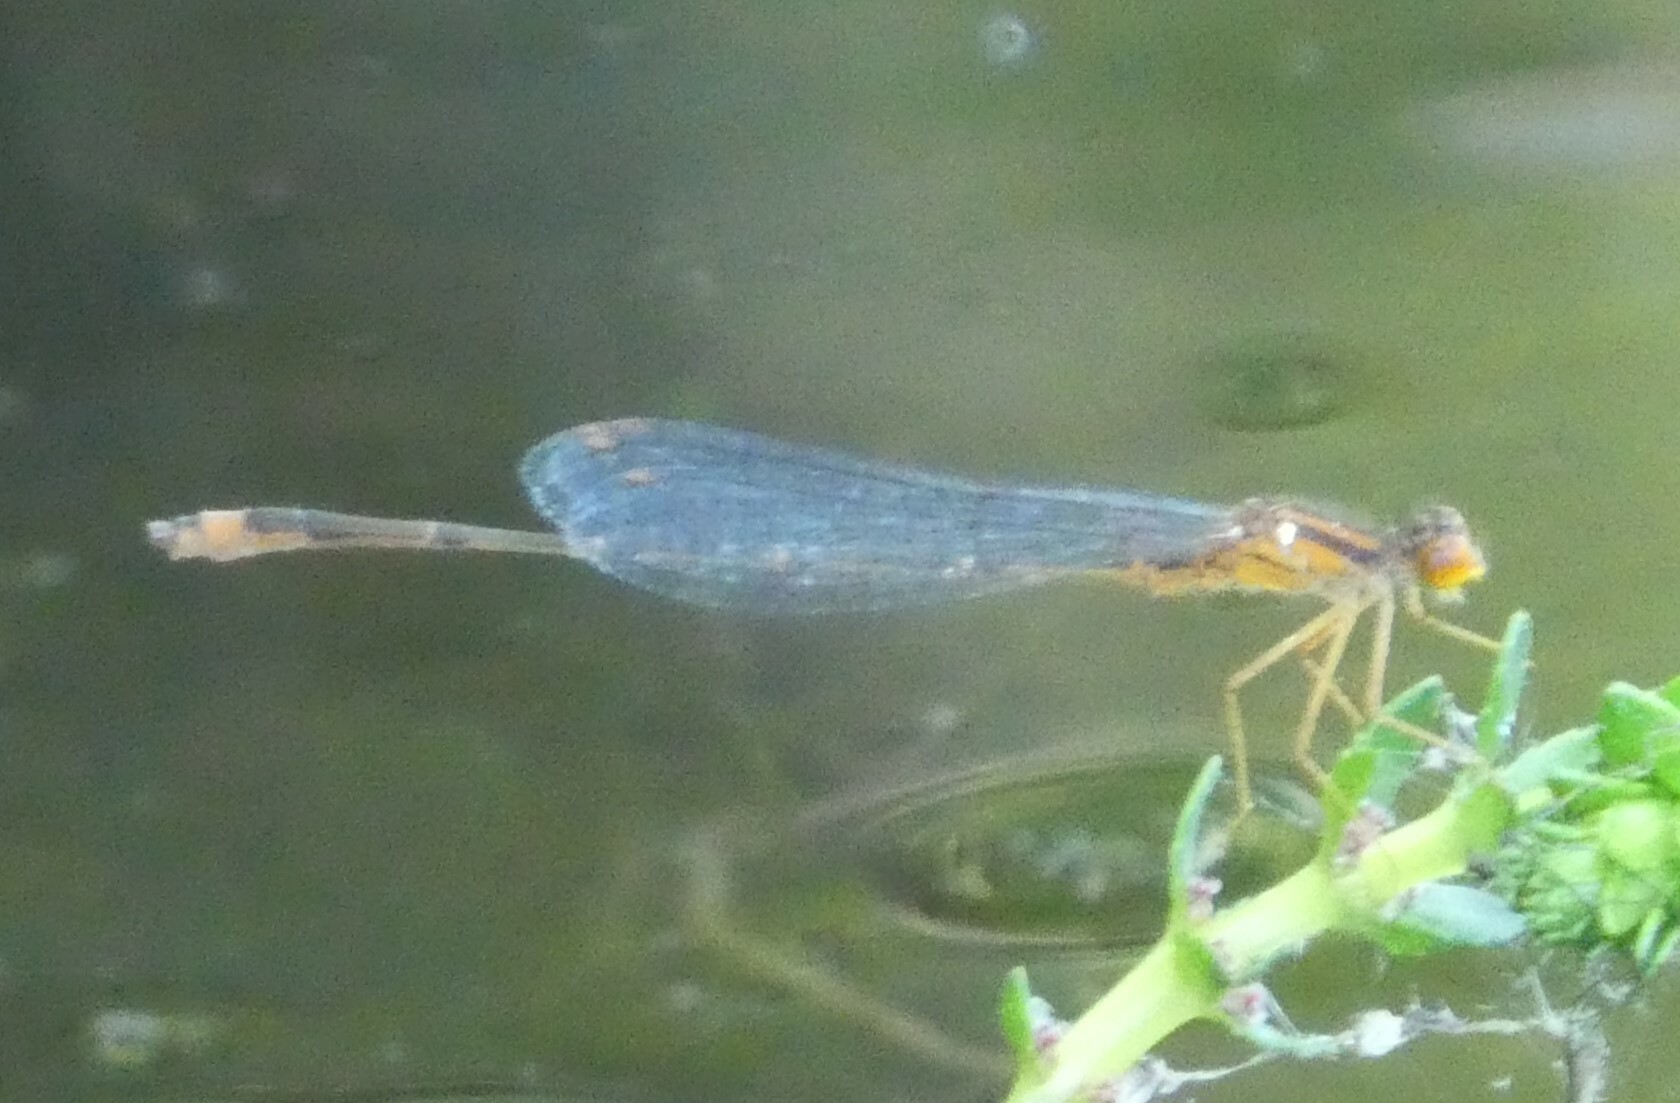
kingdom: Animalia
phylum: Arthropoda
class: Insecta
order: Odonata
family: Coenagrionidae
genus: Enallagma
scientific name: Enallagma signatum
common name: Orange bluet
